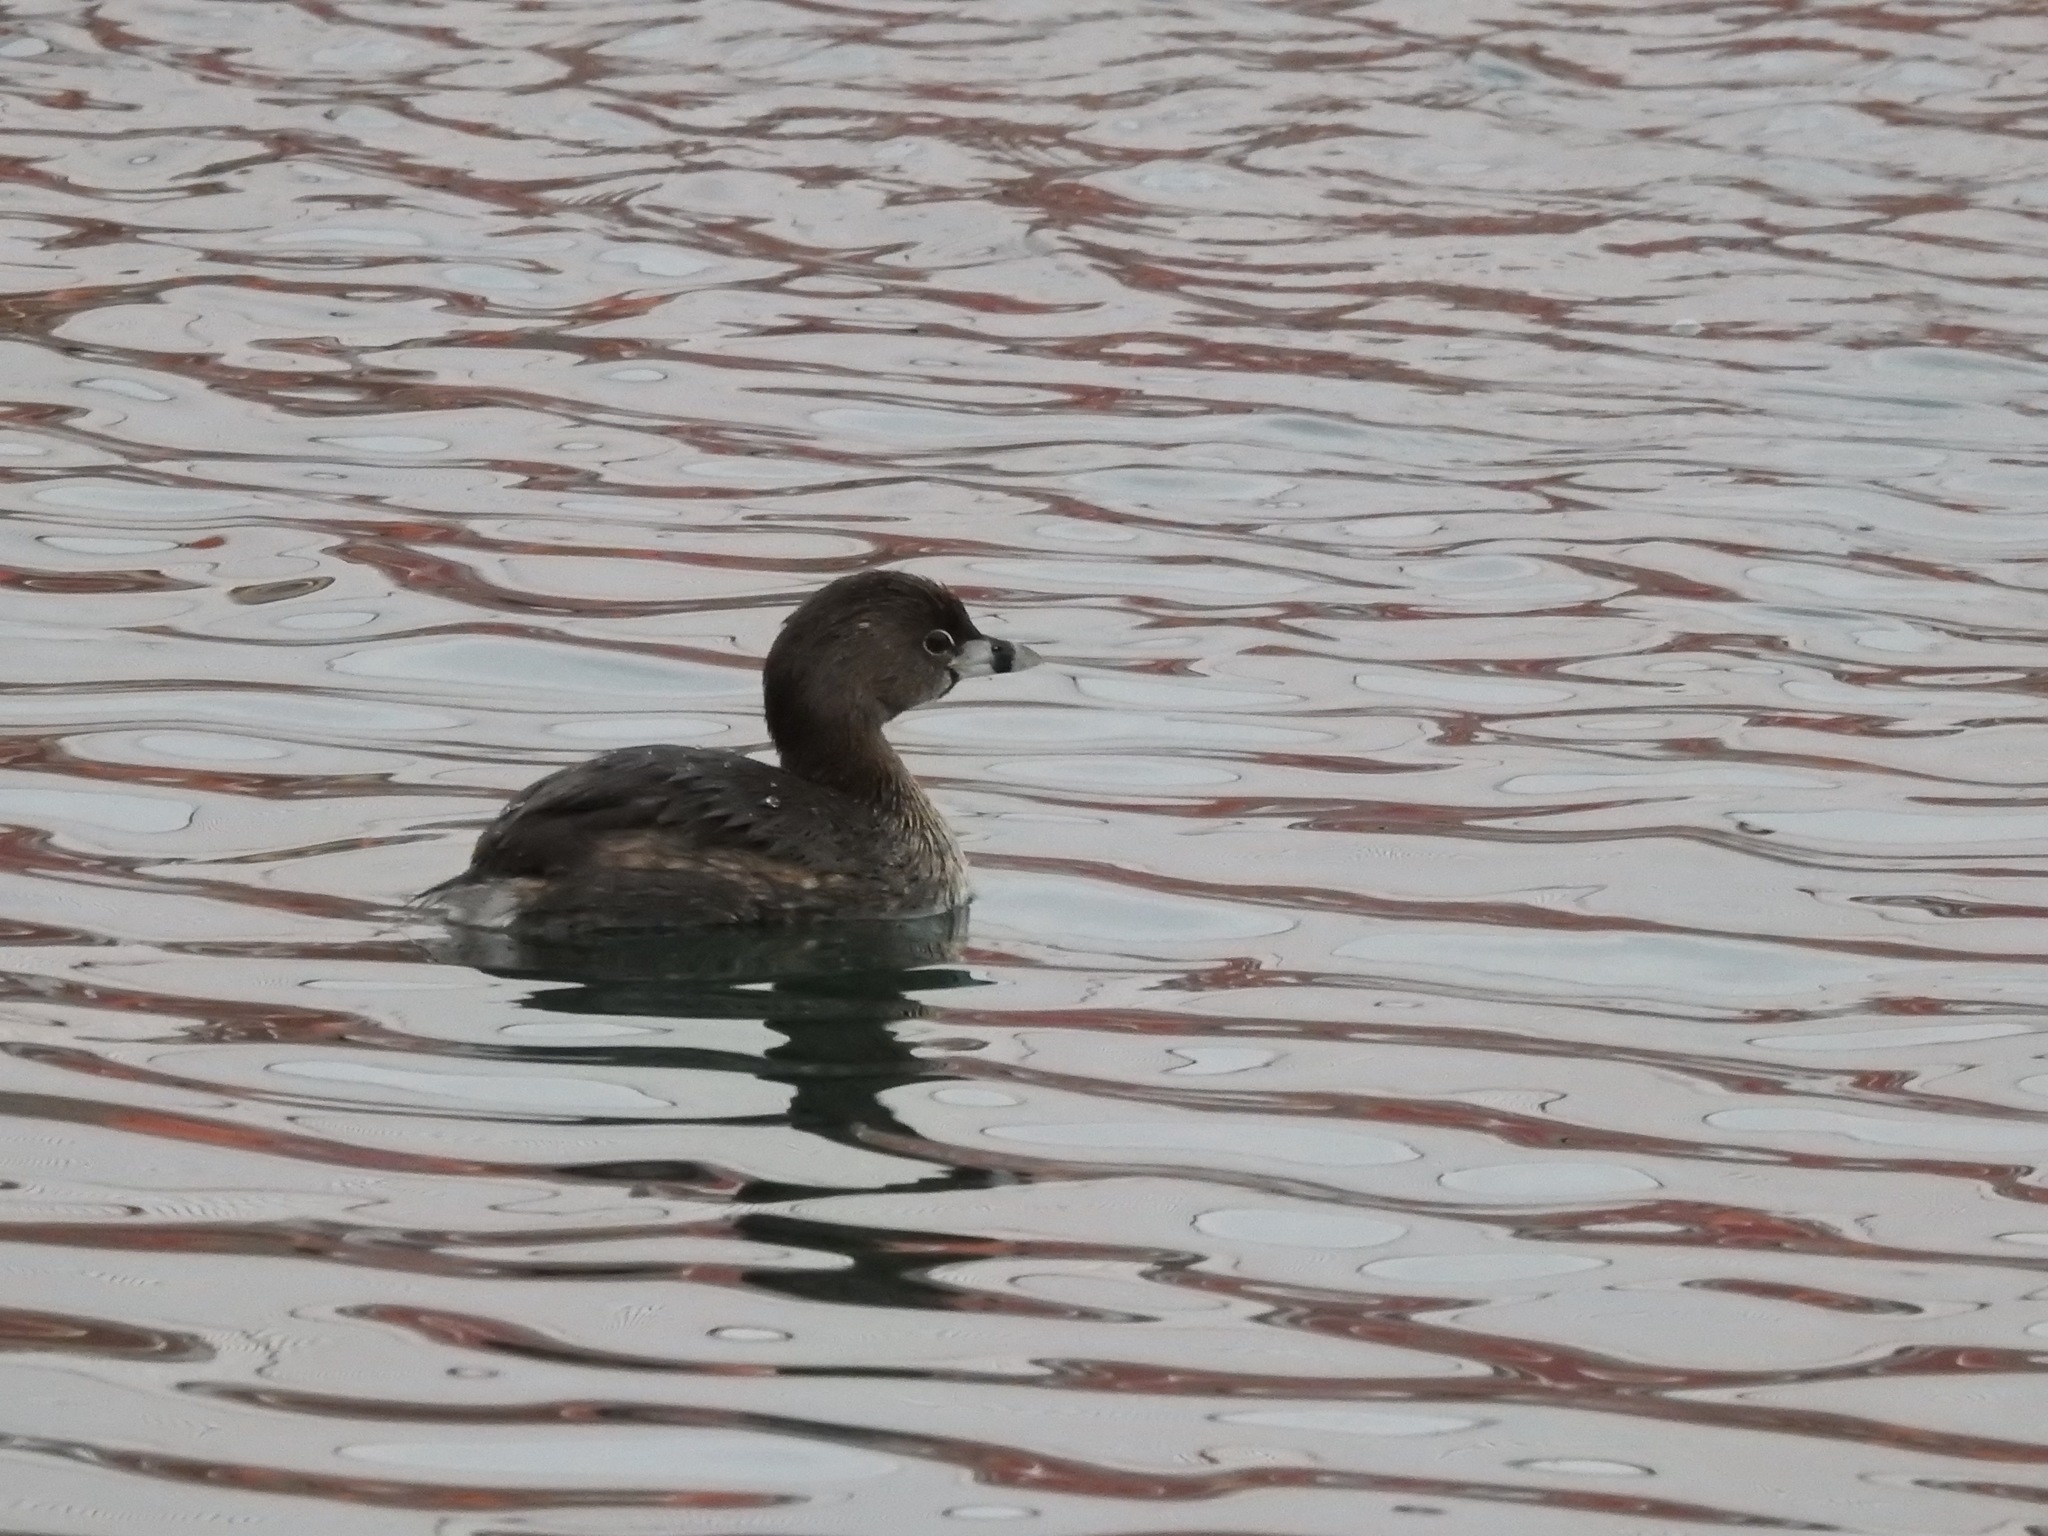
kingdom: Animalia
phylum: Chordata
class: Aves
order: Podicipediformes
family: Podicipedidae
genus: Podilymbus
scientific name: Podilymbus podiceps
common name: Pied-billed grebe
